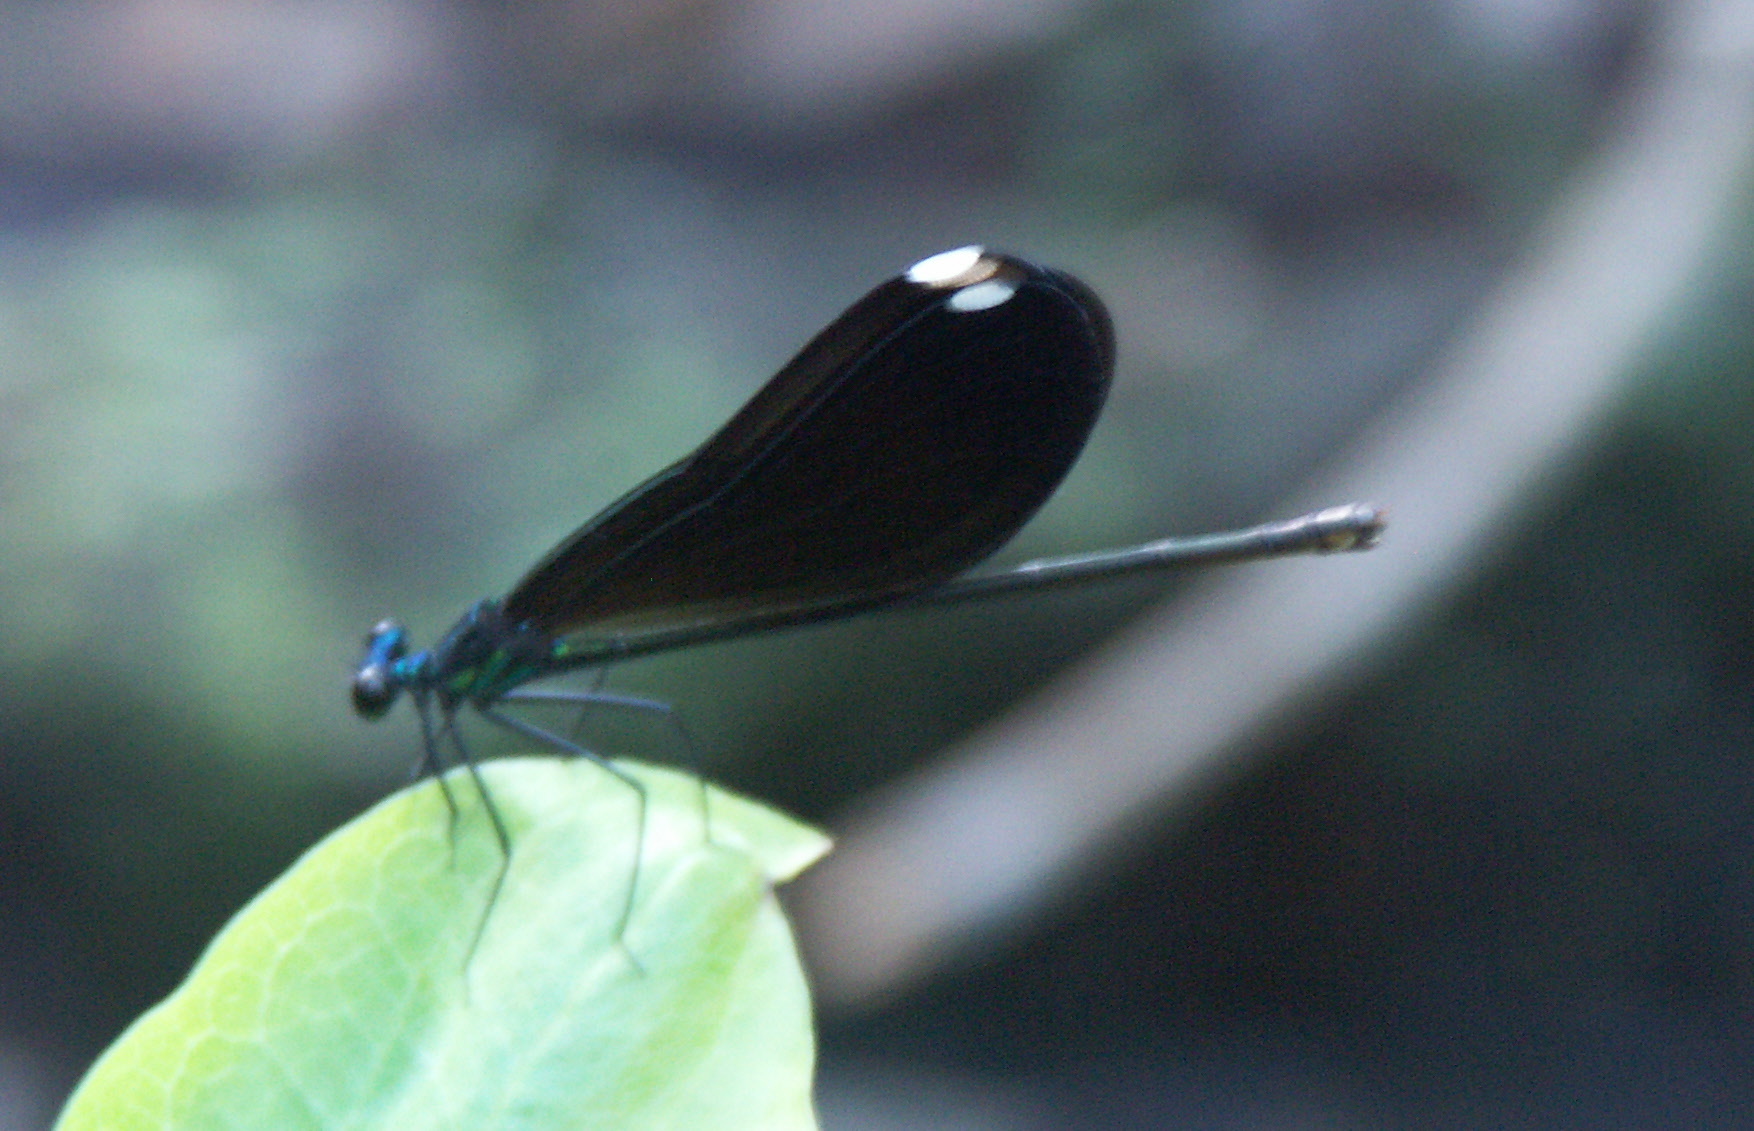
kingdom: Animalia
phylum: Arthropoda
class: Insecta
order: Odonata
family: Calopterygidae
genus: Calopteryx
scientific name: Calopteryx maculata
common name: Ebony jewelwing
